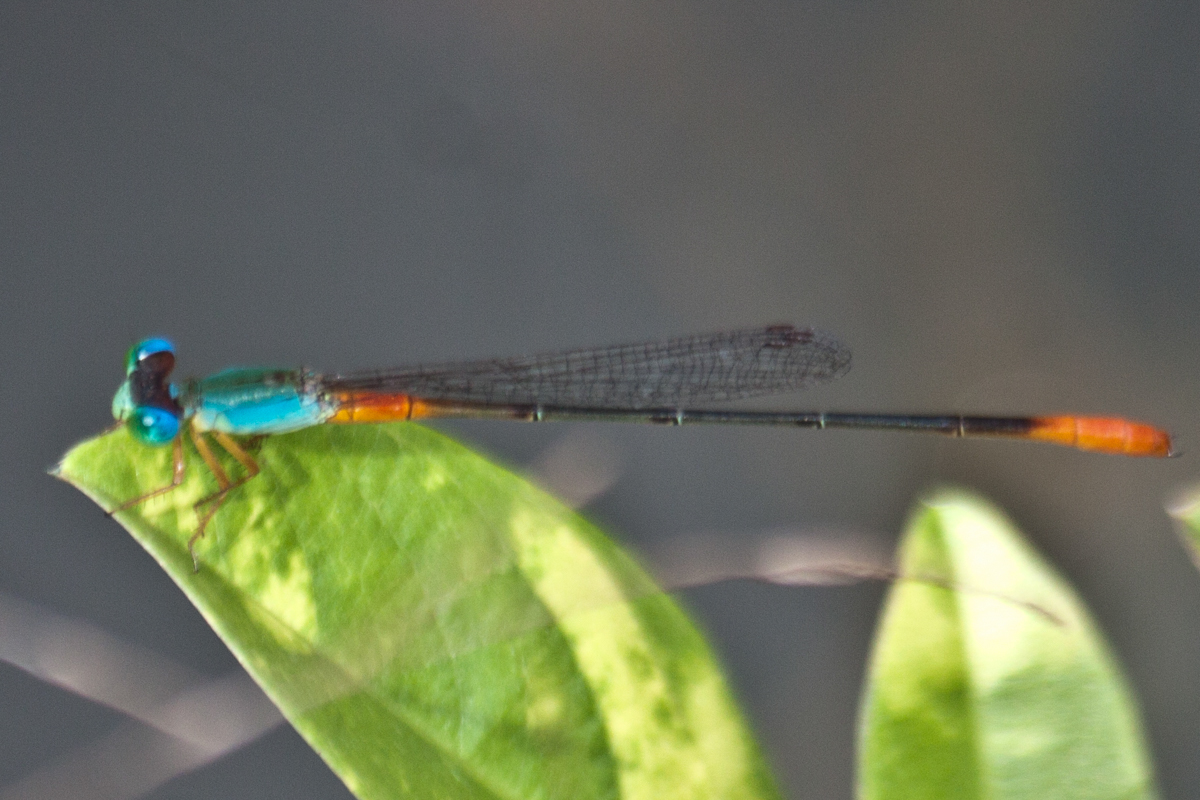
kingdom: Animalia
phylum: Arthropoda
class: Insecta
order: Odonata
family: Coenagrionidae
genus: Ceriagrion
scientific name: Ceriagrion cerinorubellum
